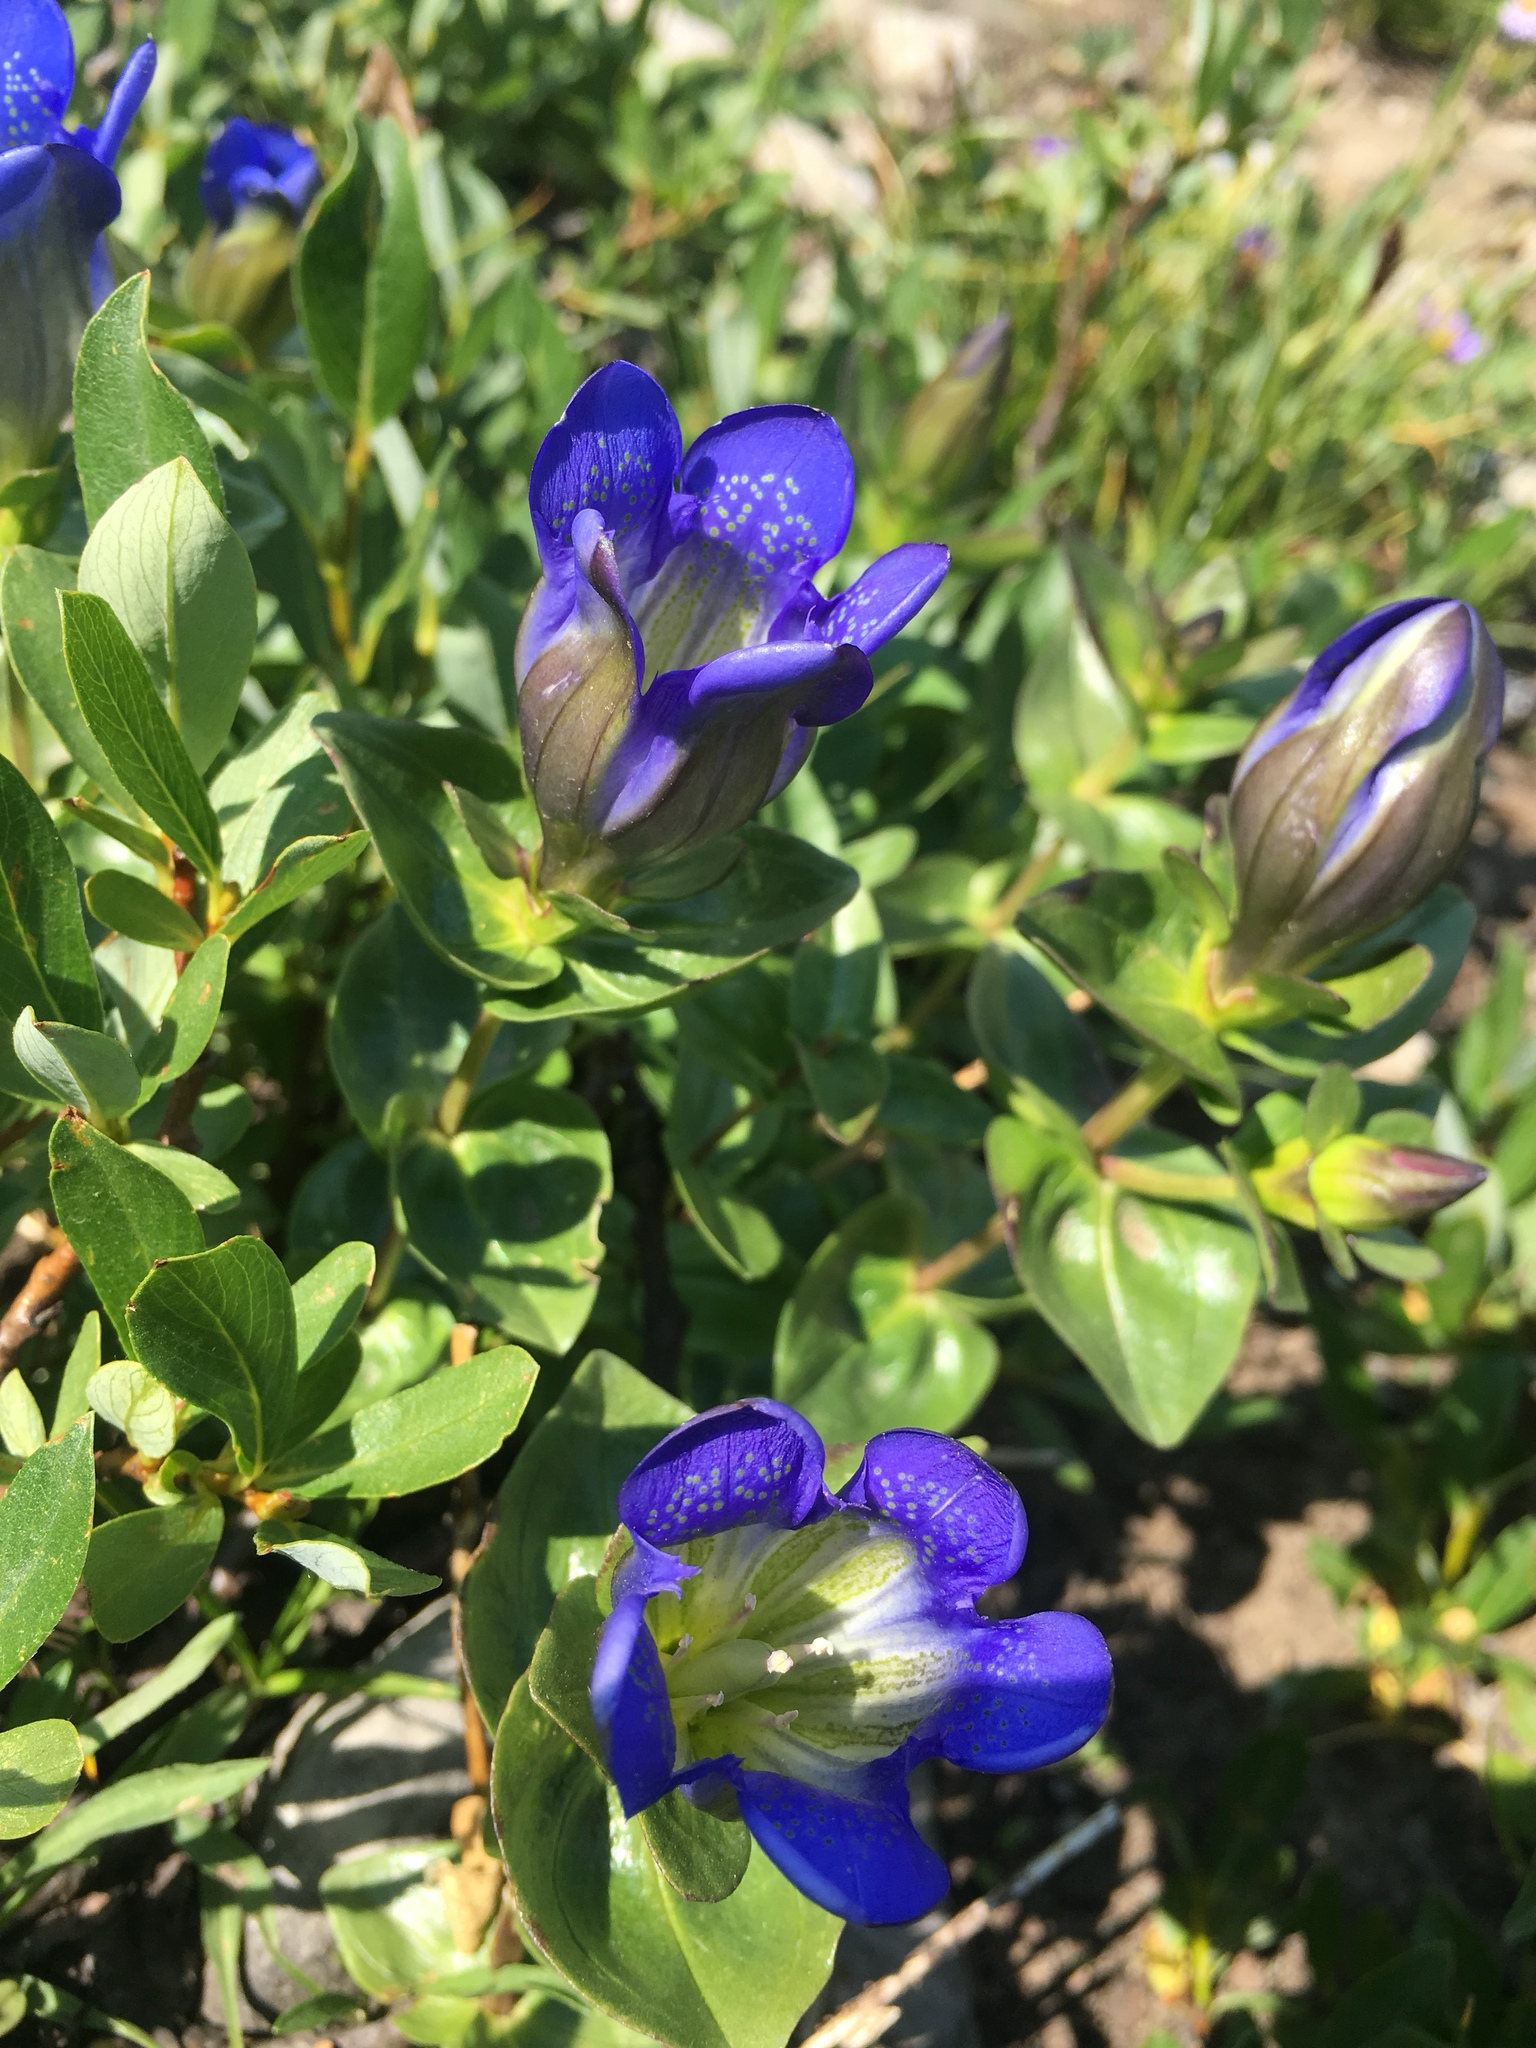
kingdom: Plantae
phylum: Tracheophyta
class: Magnoliopsida
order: Gentianales
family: Gentianaceae
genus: Gentiana
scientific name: Gentiana calycosa
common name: Rainier pleated gentian
